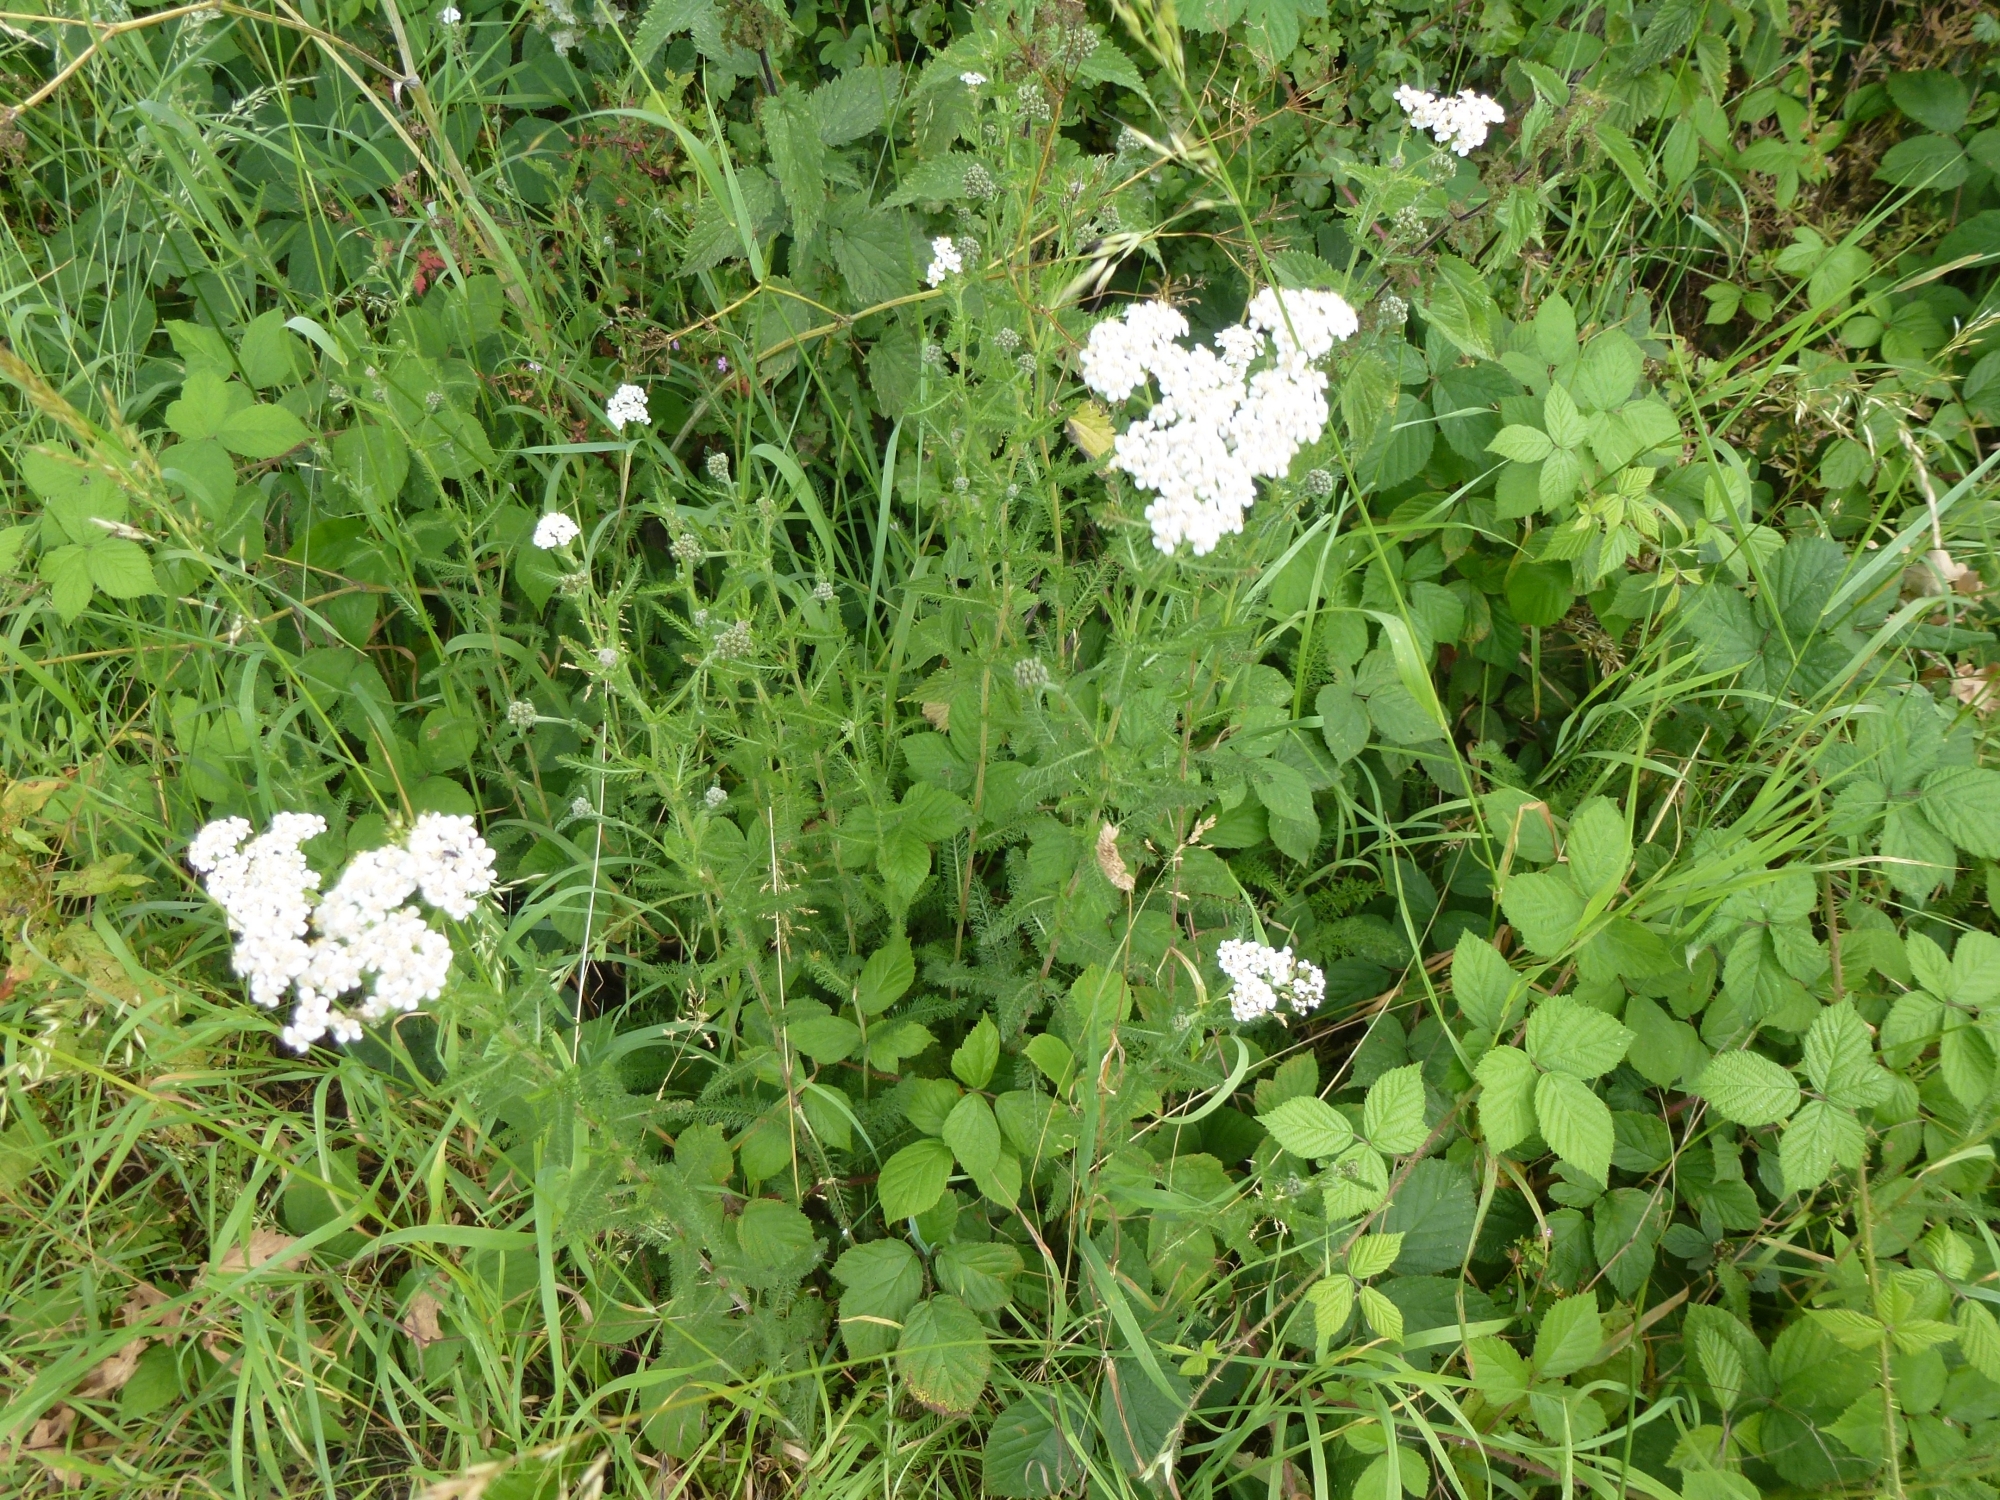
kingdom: Plantae
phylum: Tracheophyta
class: Magnoliopsida
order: Asterales
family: Asteraceae
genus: Achillea
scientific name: Achillea millefolium
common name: Yarrow
